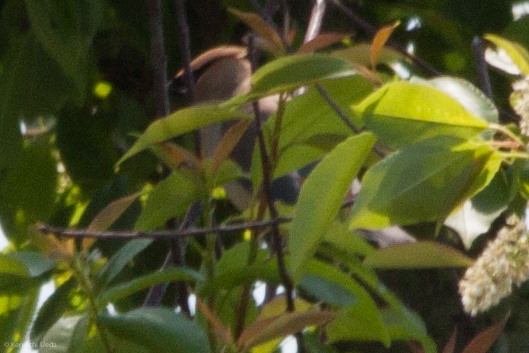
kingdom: Animalia
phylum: Chordata
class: Aves
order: Passeriformes
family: Bombycillidae
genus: Bombycilla
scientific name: Bombycilla cedrorum
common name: Cedar waxwing
